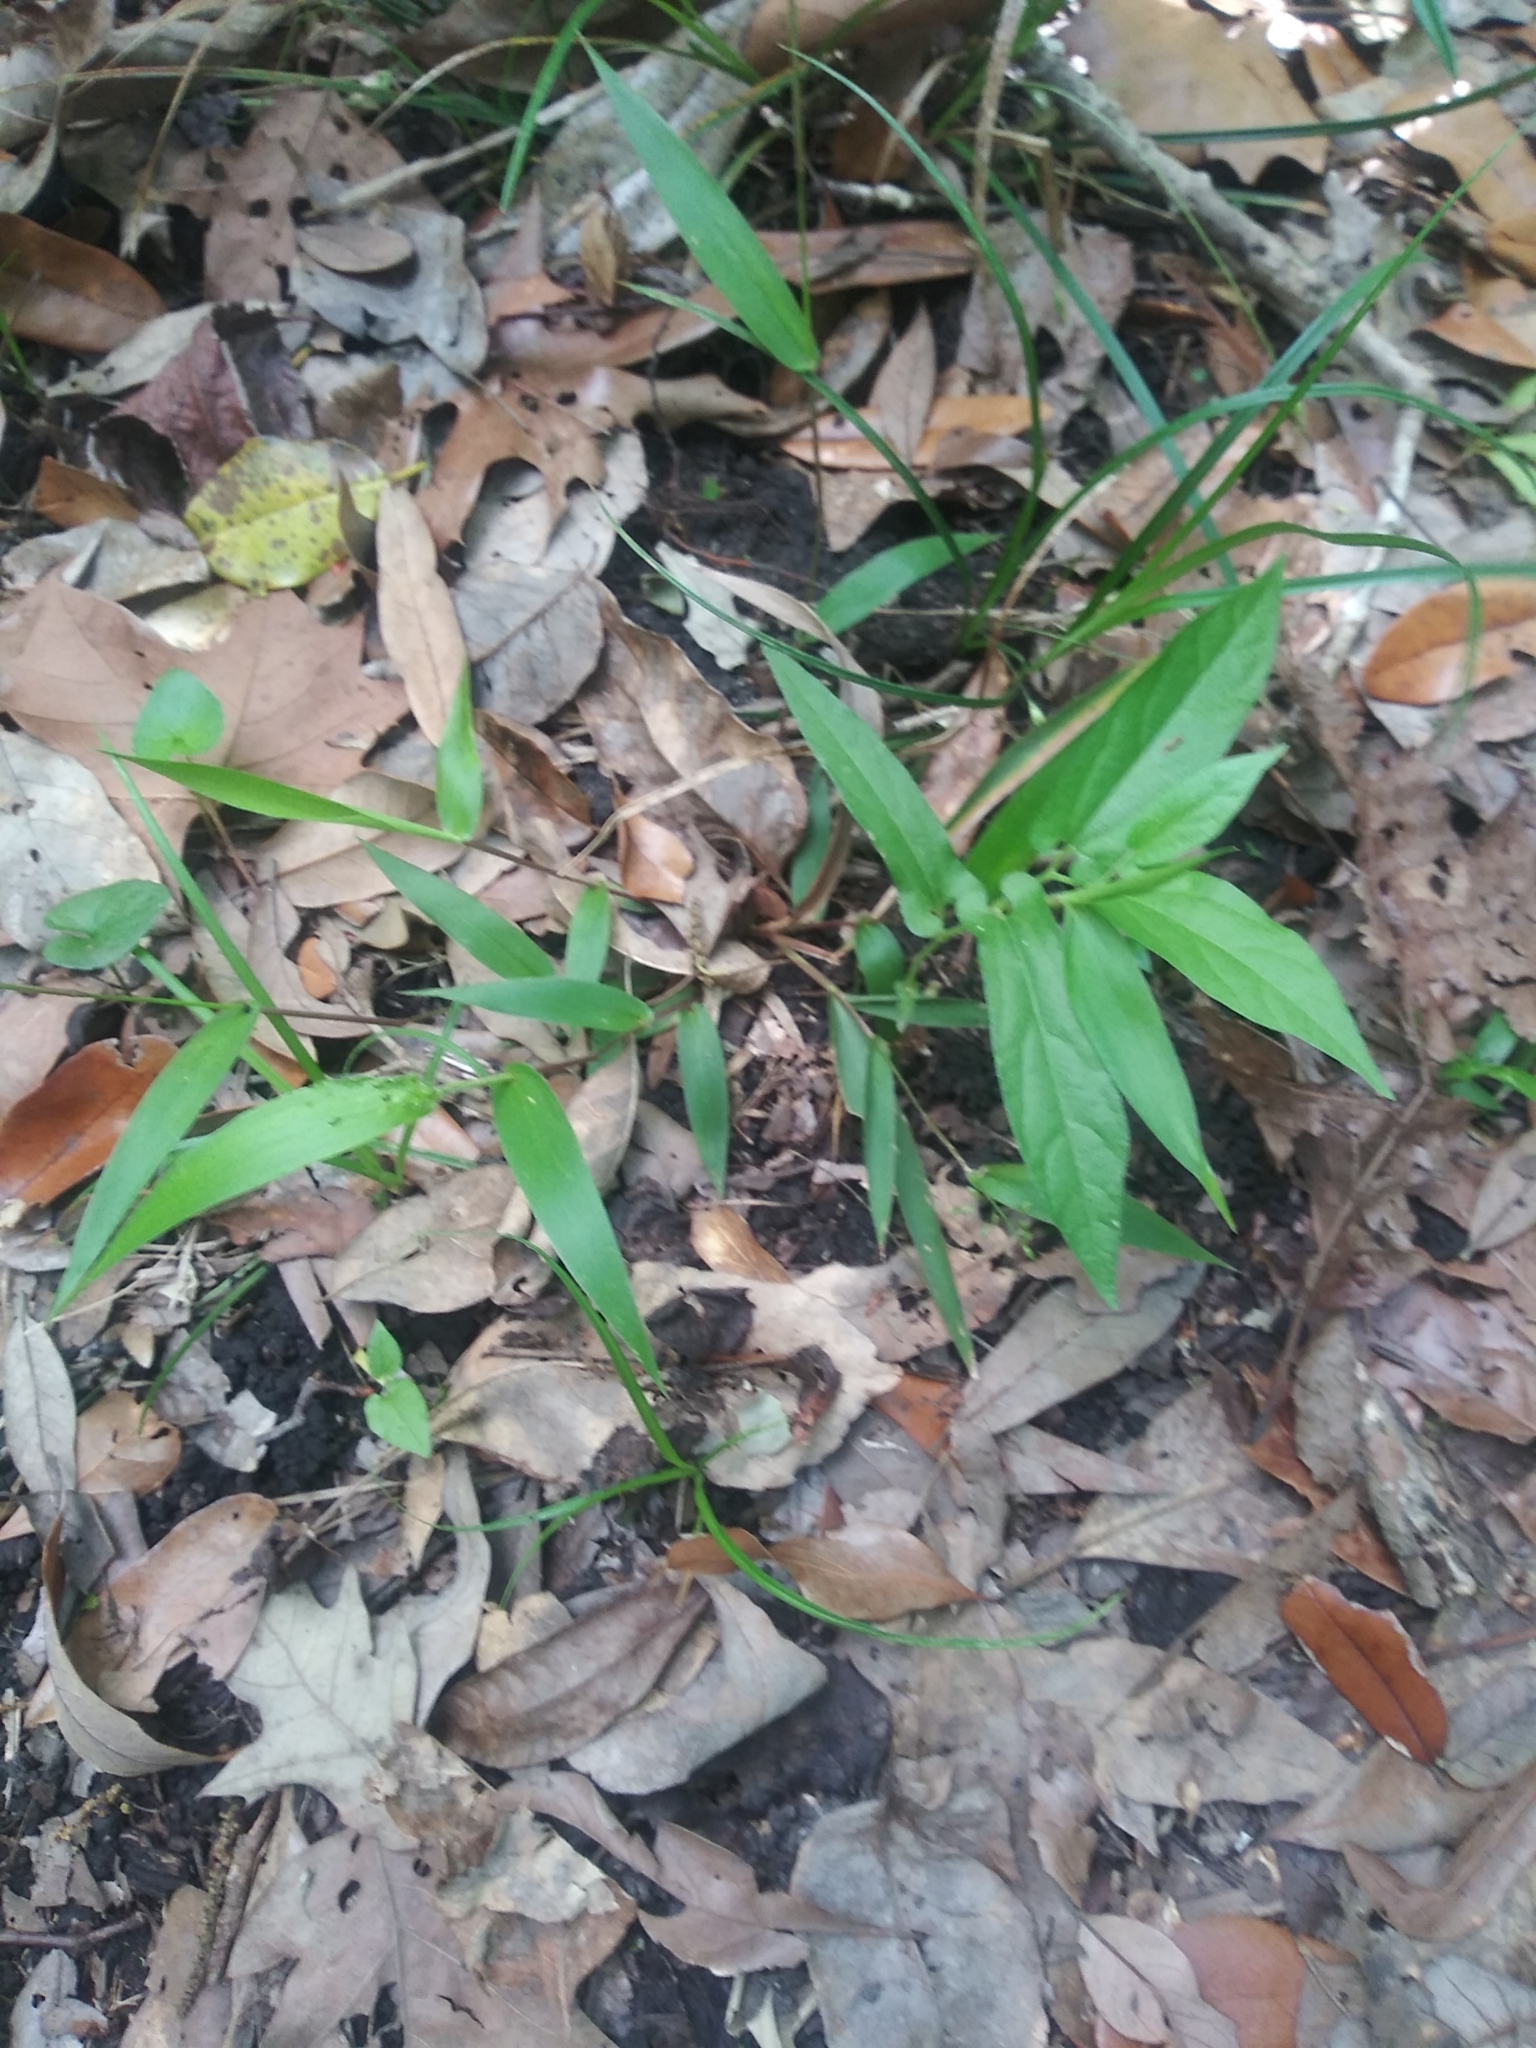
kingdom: Plantae
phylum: Tracheophyta
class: Magnoliopsida
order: Piperales
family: Aristolochiaceae
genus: Endodeca
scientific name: Endodeca serpentaria
